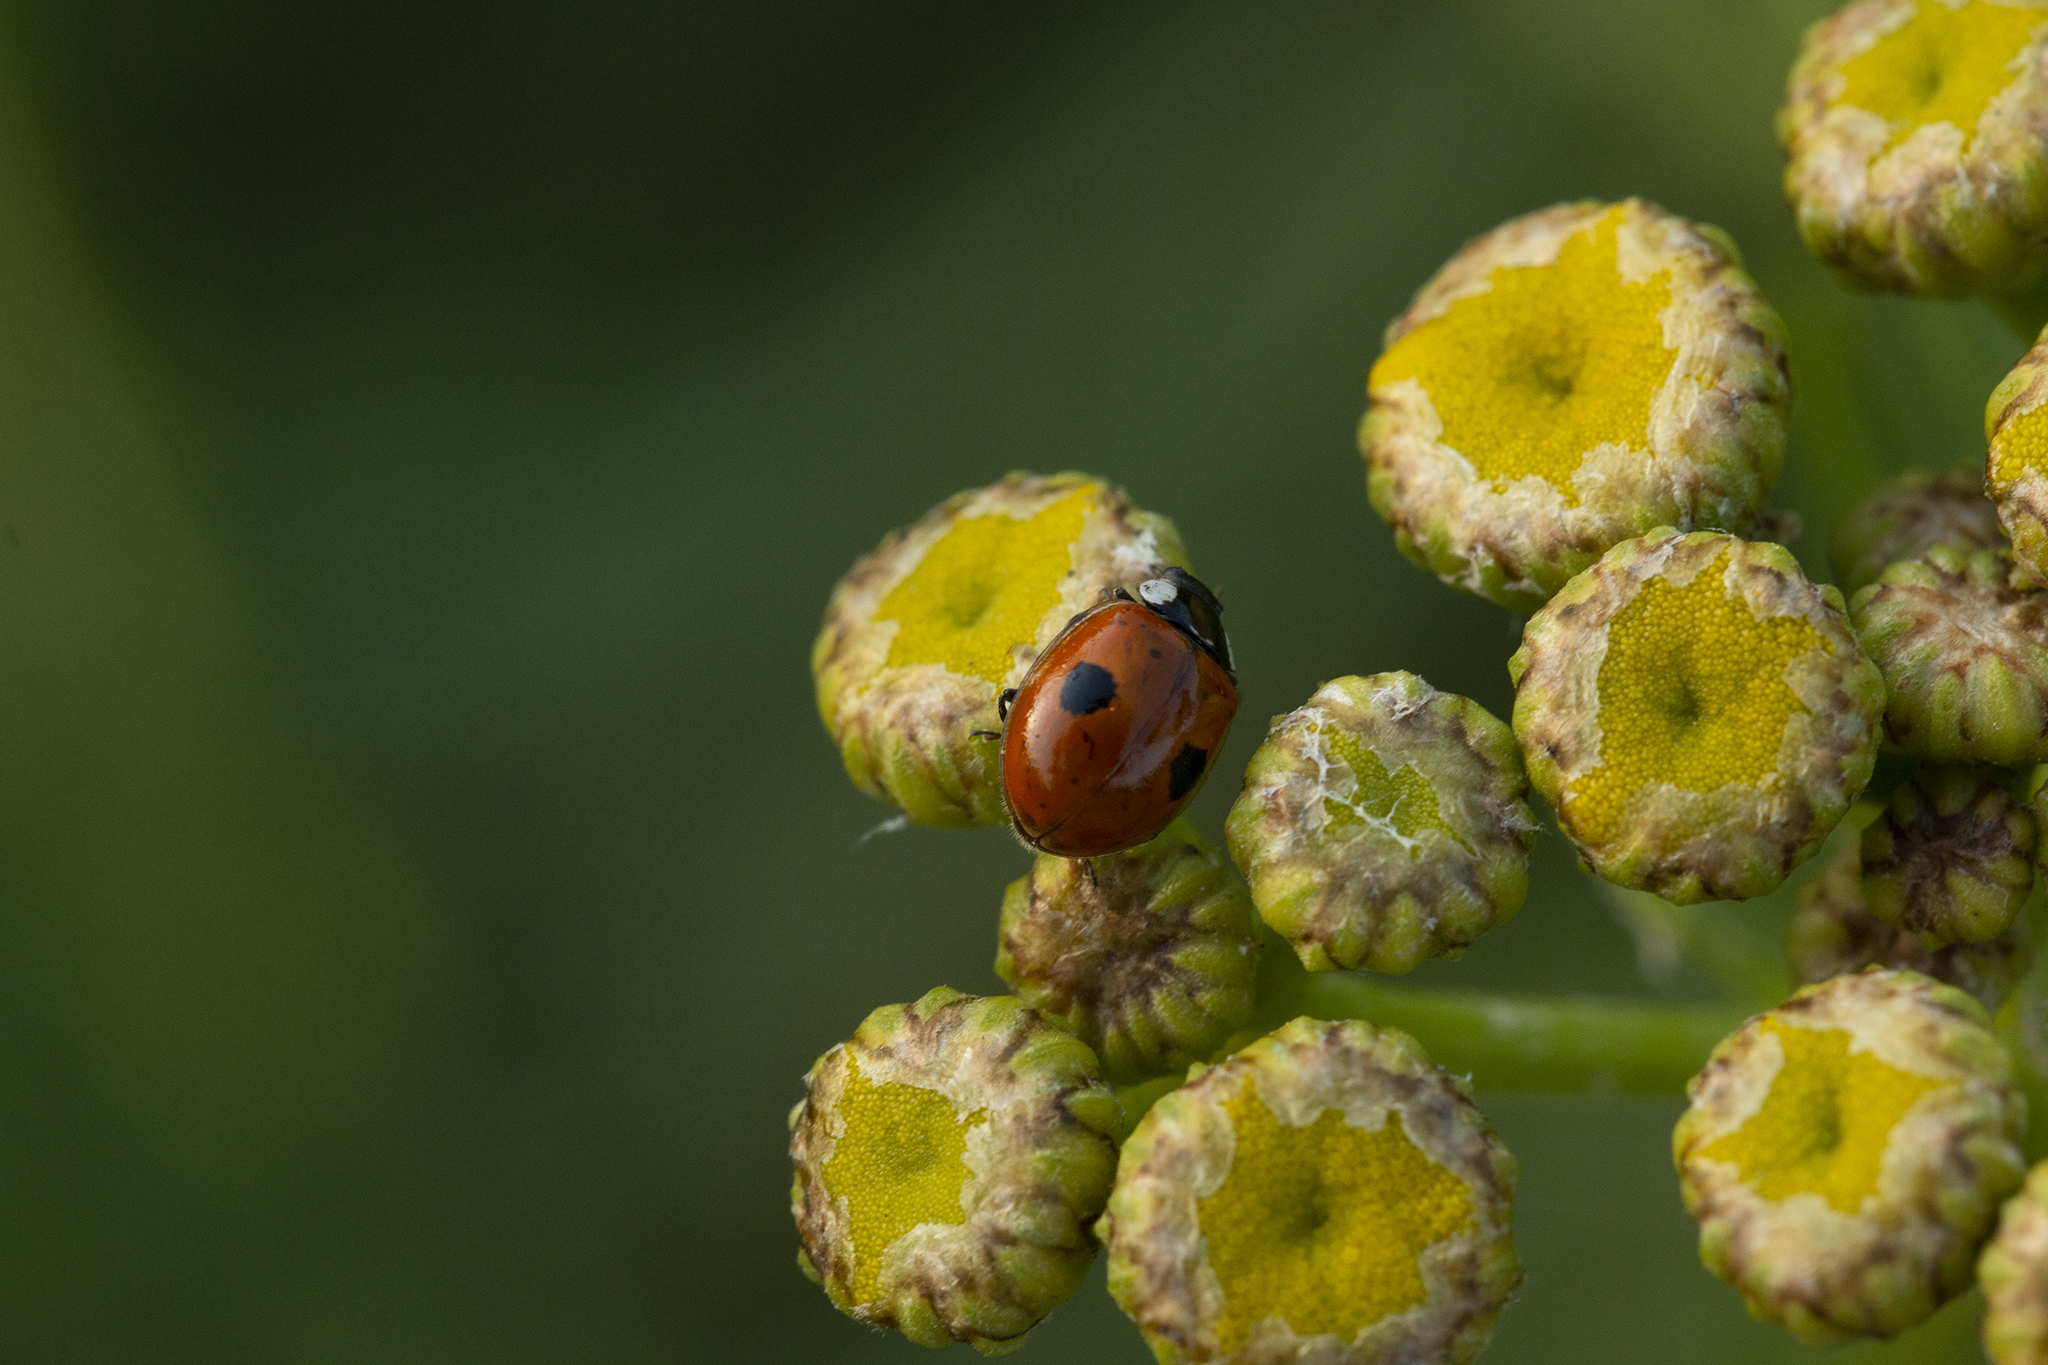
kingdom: Animalia
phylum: Arthropoda
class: Insecta
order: Coleoptera
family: Coccinellidae
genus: Adalia
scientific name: Adalia bipunctata
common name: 2-spot ladybird
